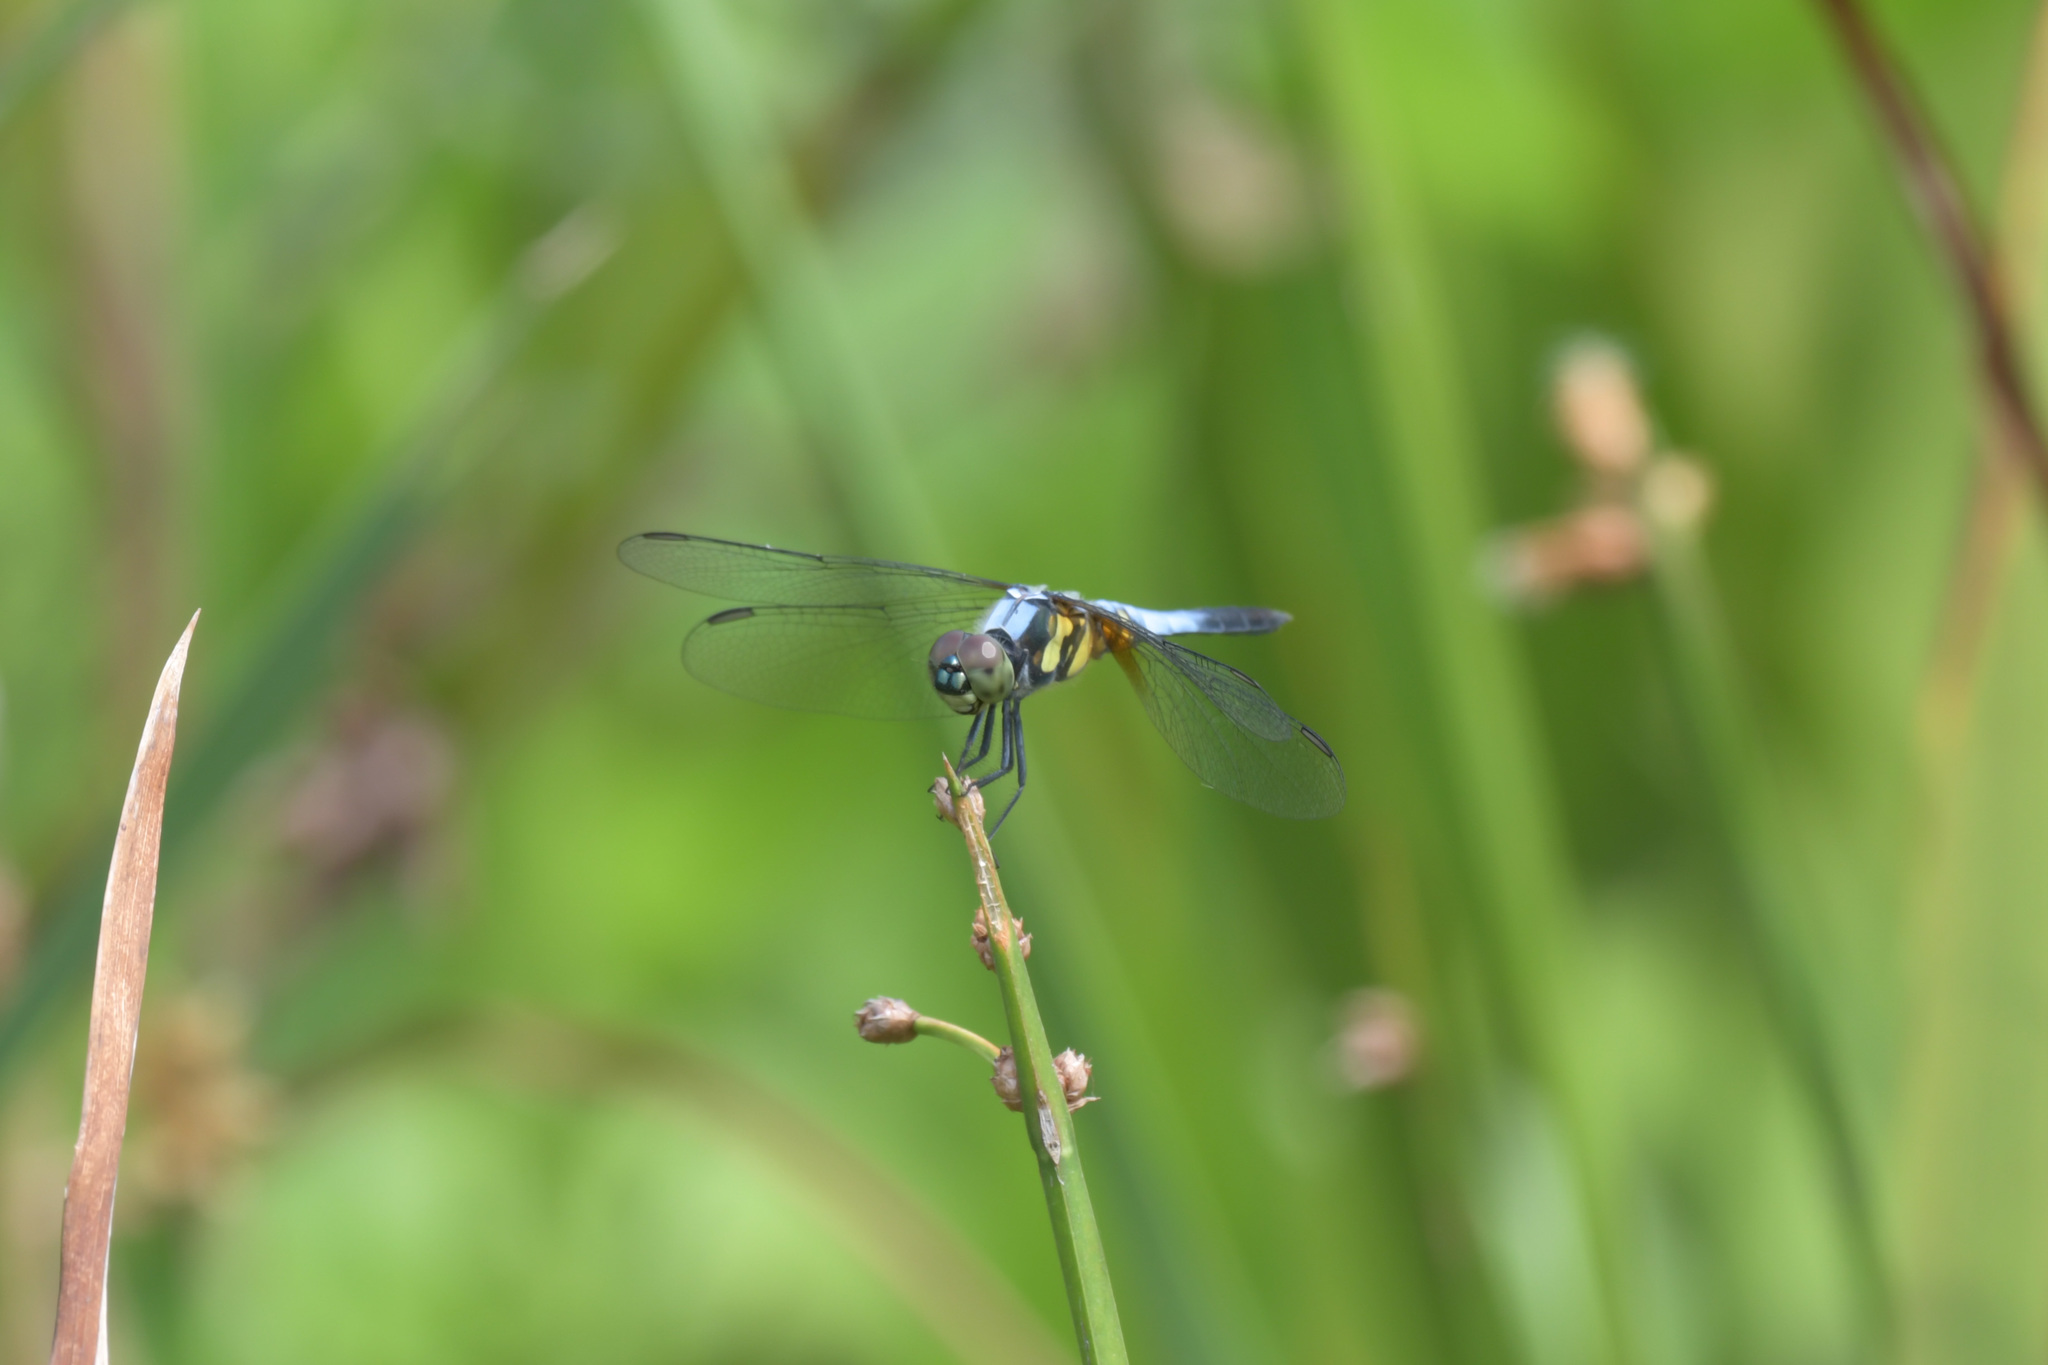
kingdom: Animalia
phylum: Arthropoda
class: Insecta
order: Odonata
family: Libellulidae
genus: Brachydiplax
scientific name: Brachydiplax chalybea
